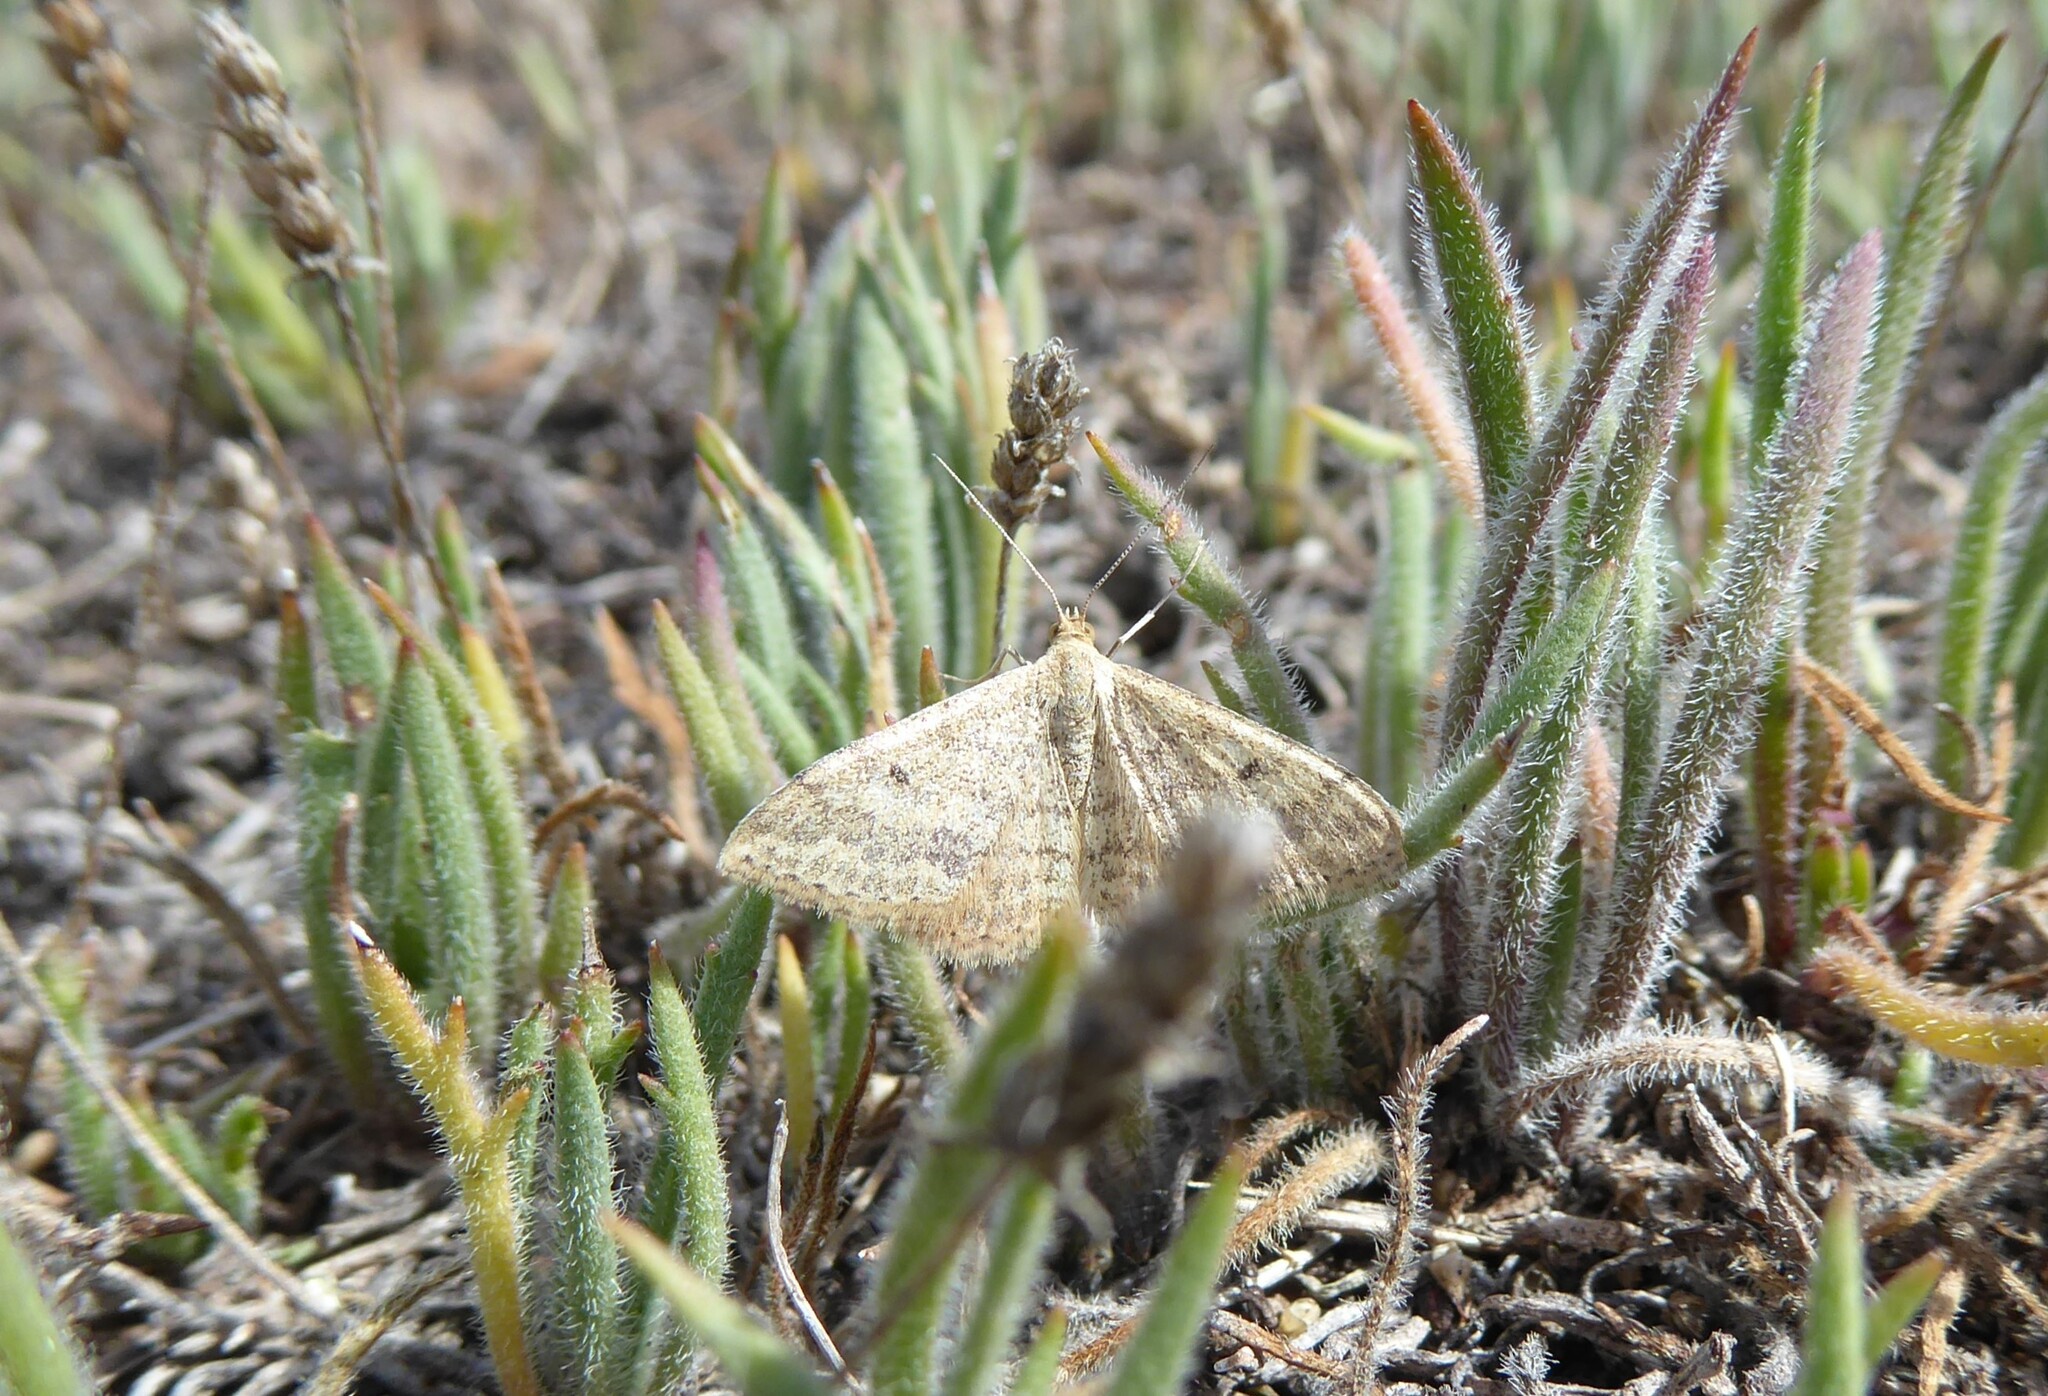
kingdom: Animalia
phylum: Arthropoda
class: Insecta
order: Lepidoptera
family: Geometridae
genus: Scopula
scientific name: Scopula rubraria
